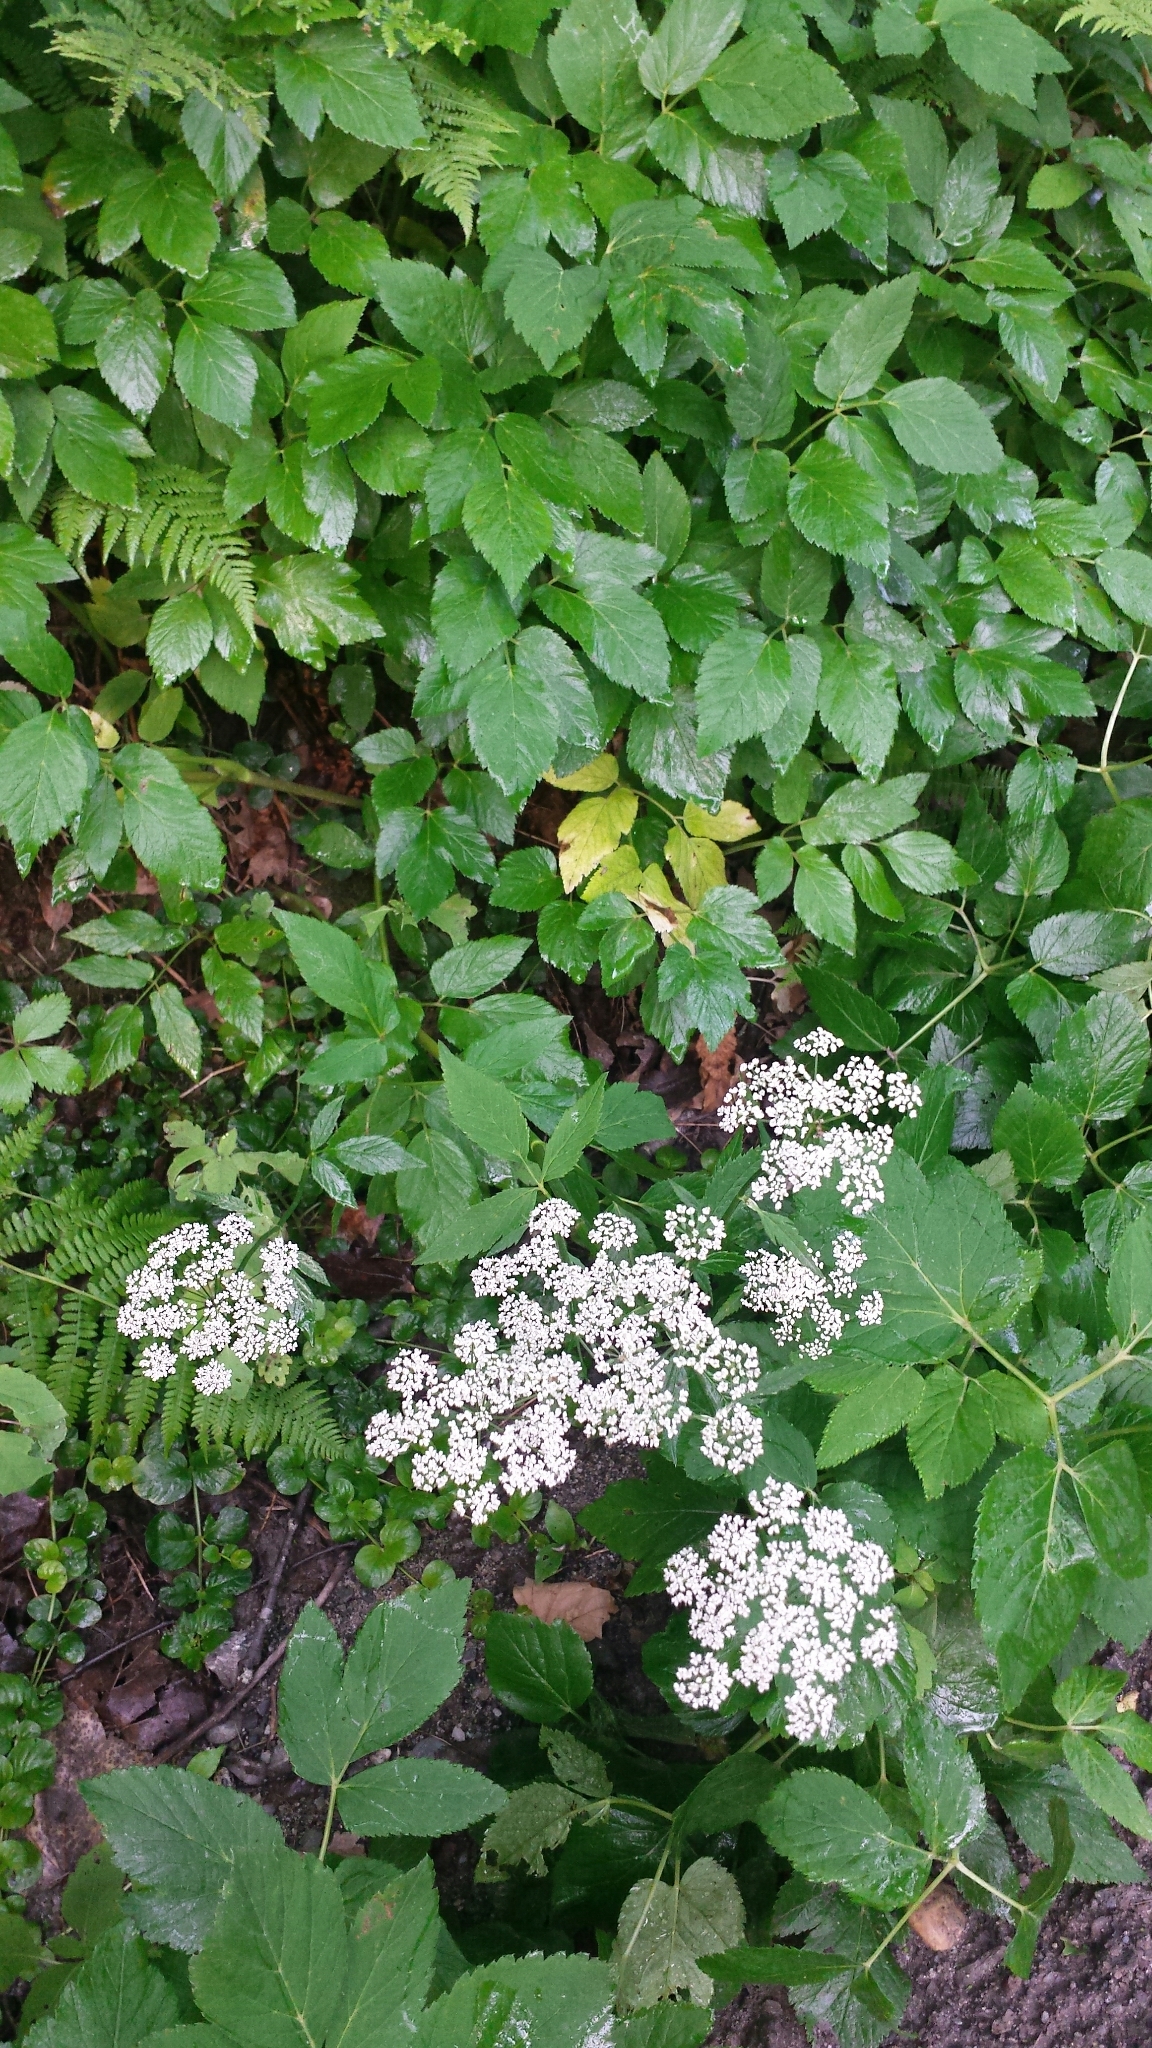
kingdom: Plantae
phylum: Tracheophyta
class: Magnoliopsida
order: Apiales
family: Apiaceae
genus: Aegopodium
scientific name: Aegopodium podagraria
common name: Ground-elder
